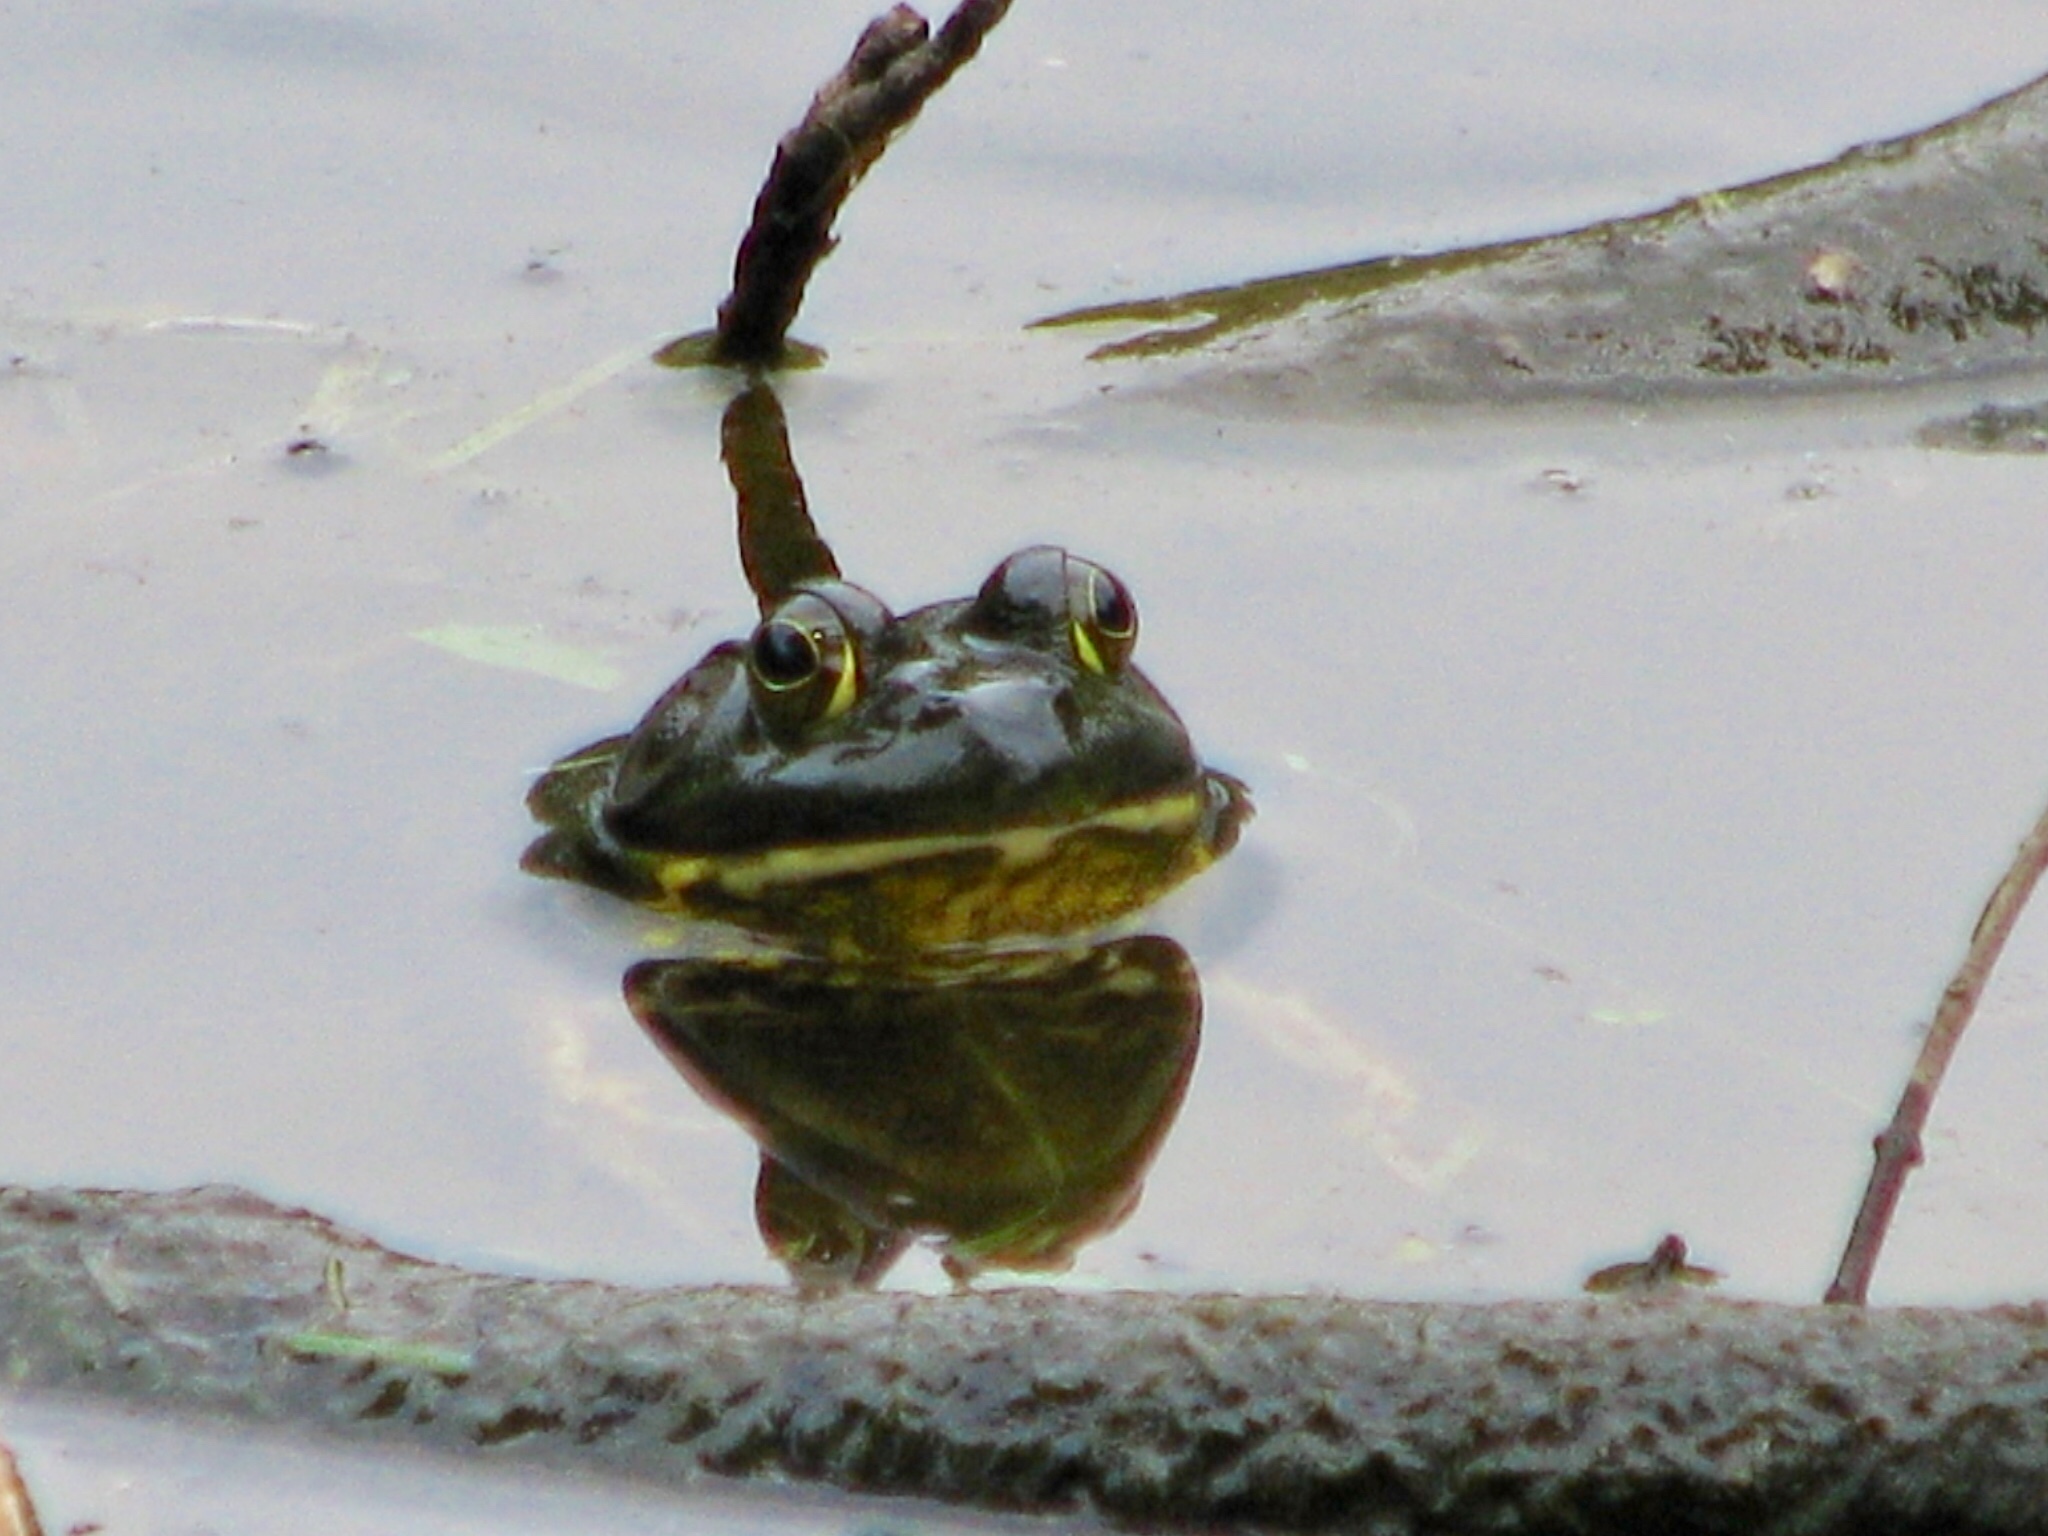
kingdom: Animalia
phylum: Chordata
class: Amphibia
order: Anura
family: Ranidae
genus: Lithobates
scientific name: Lithobates catesbeianus
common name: American bullfrog
